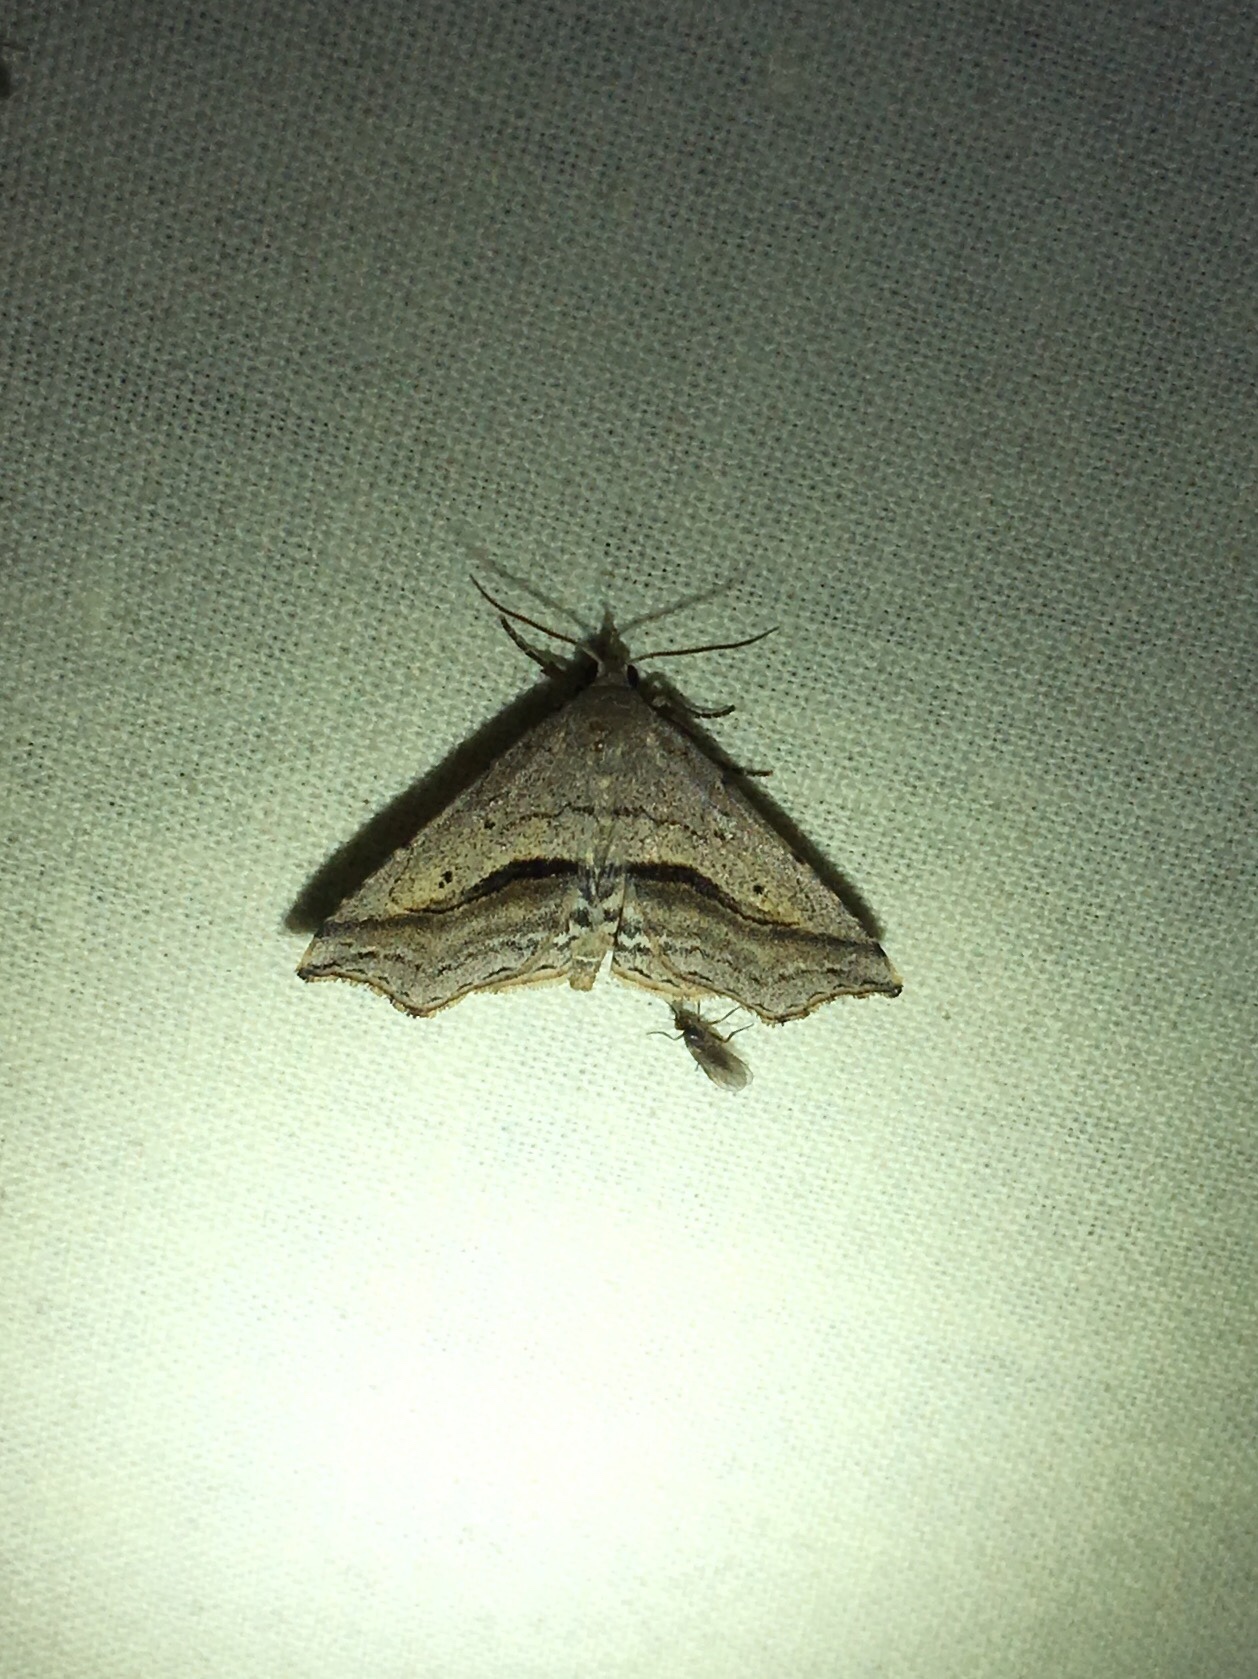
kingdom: Animalia
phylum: Arthropoda
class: Insecta
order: Lepidoptera
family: Erebidae
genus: Spargaloma
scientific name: Spargaloma perditalis
